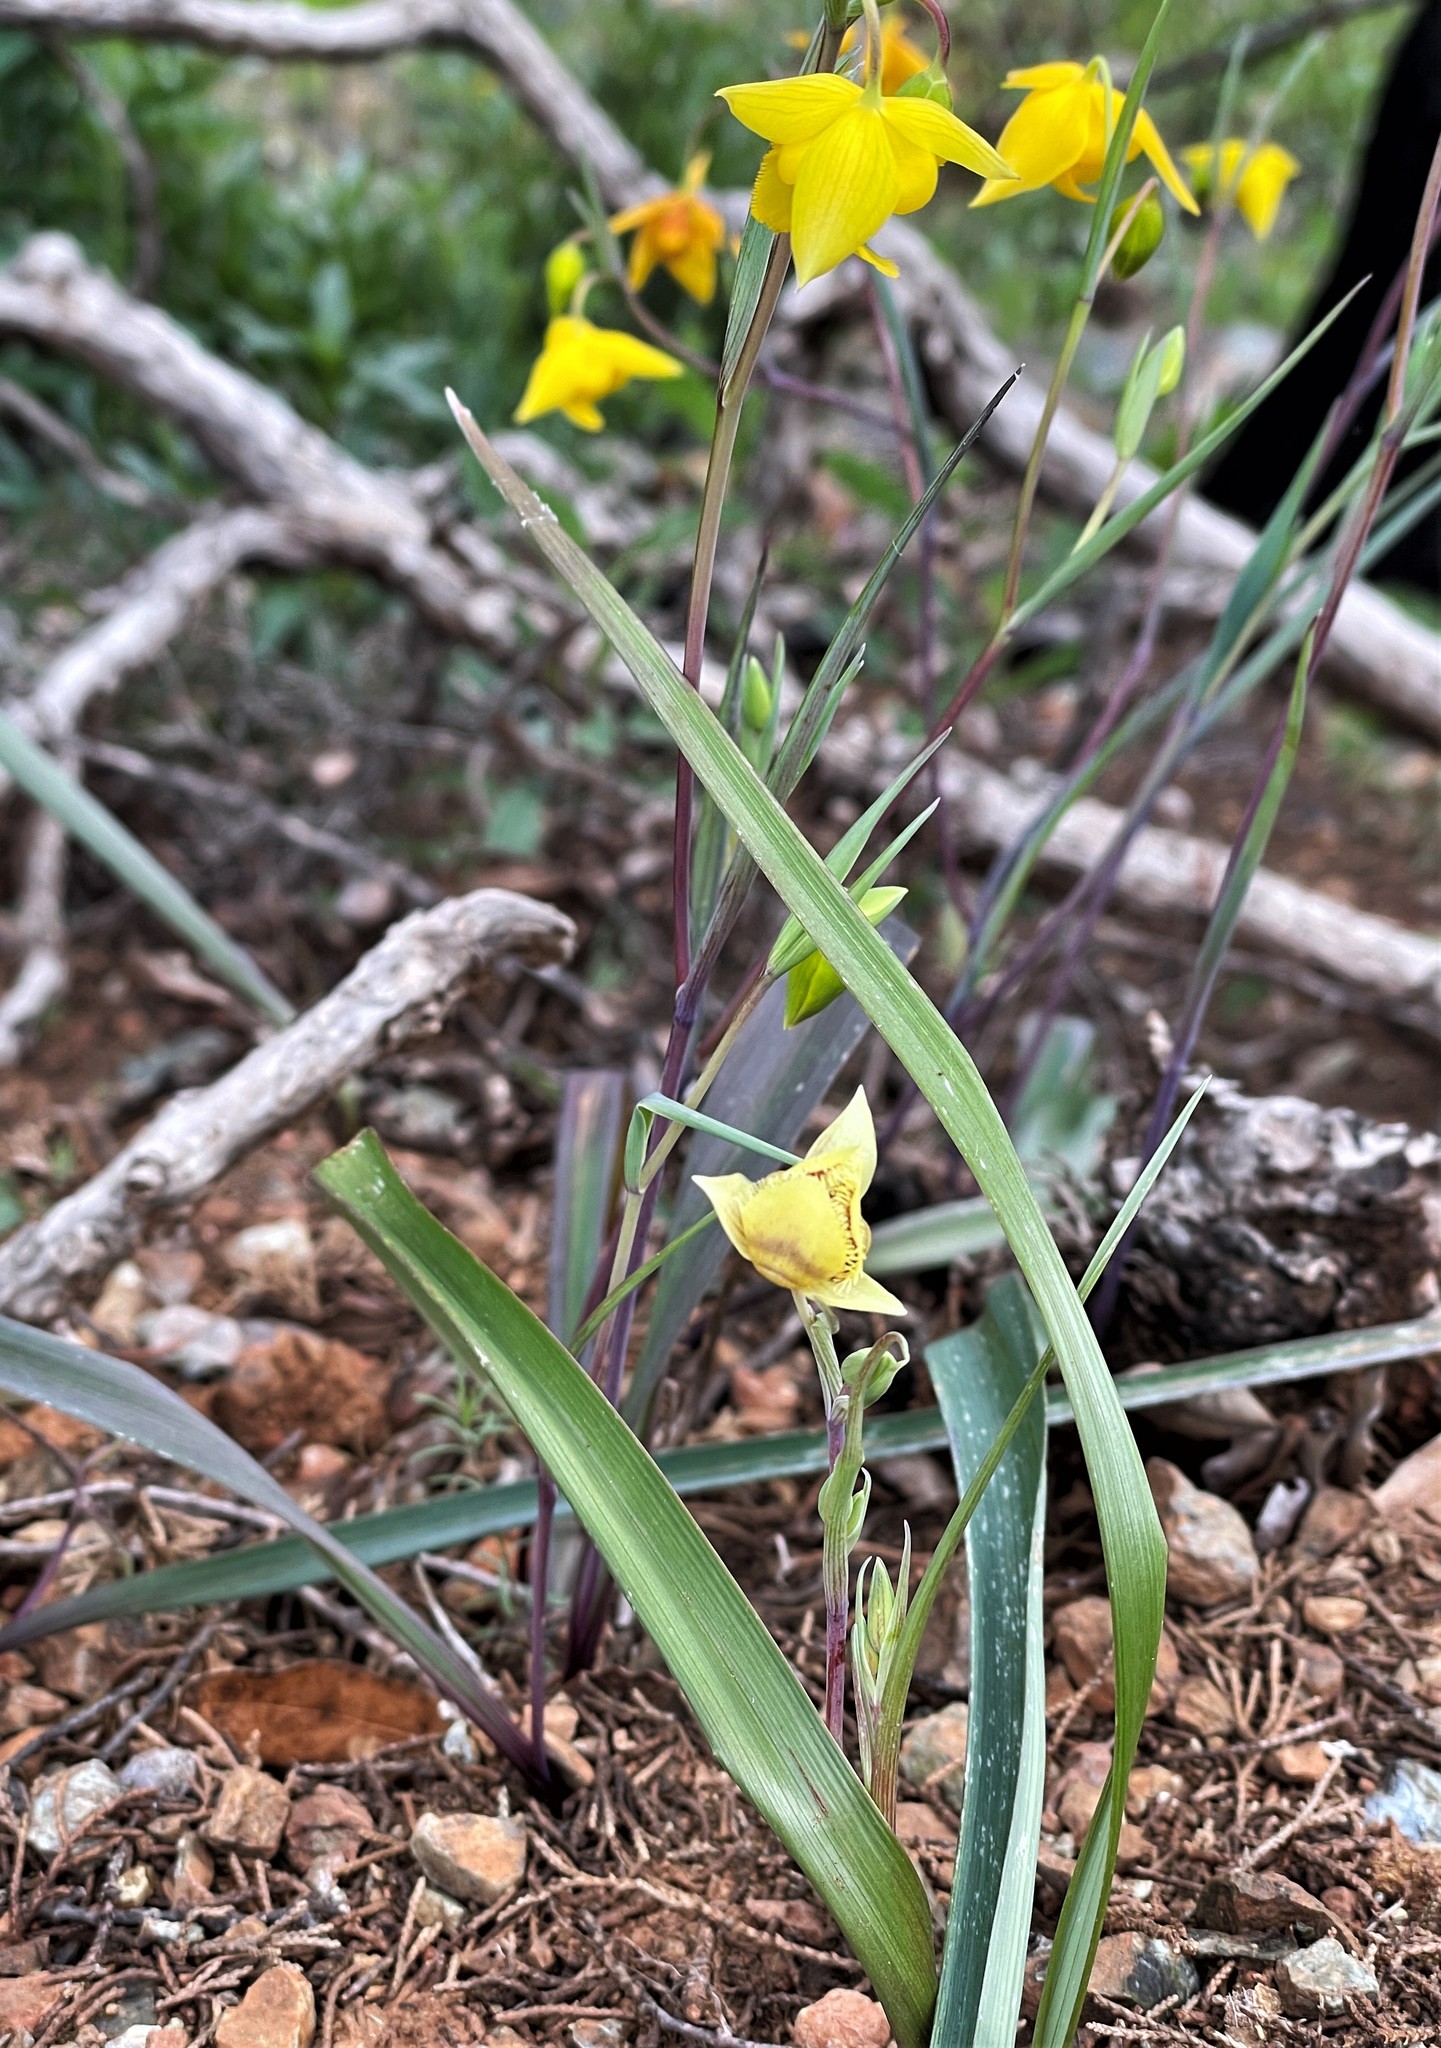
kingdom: Plantae
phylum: Tracheophyta
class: Liliopsida
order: Liliales
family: Liliaceae
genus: Calochortus
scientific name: Calochortus
